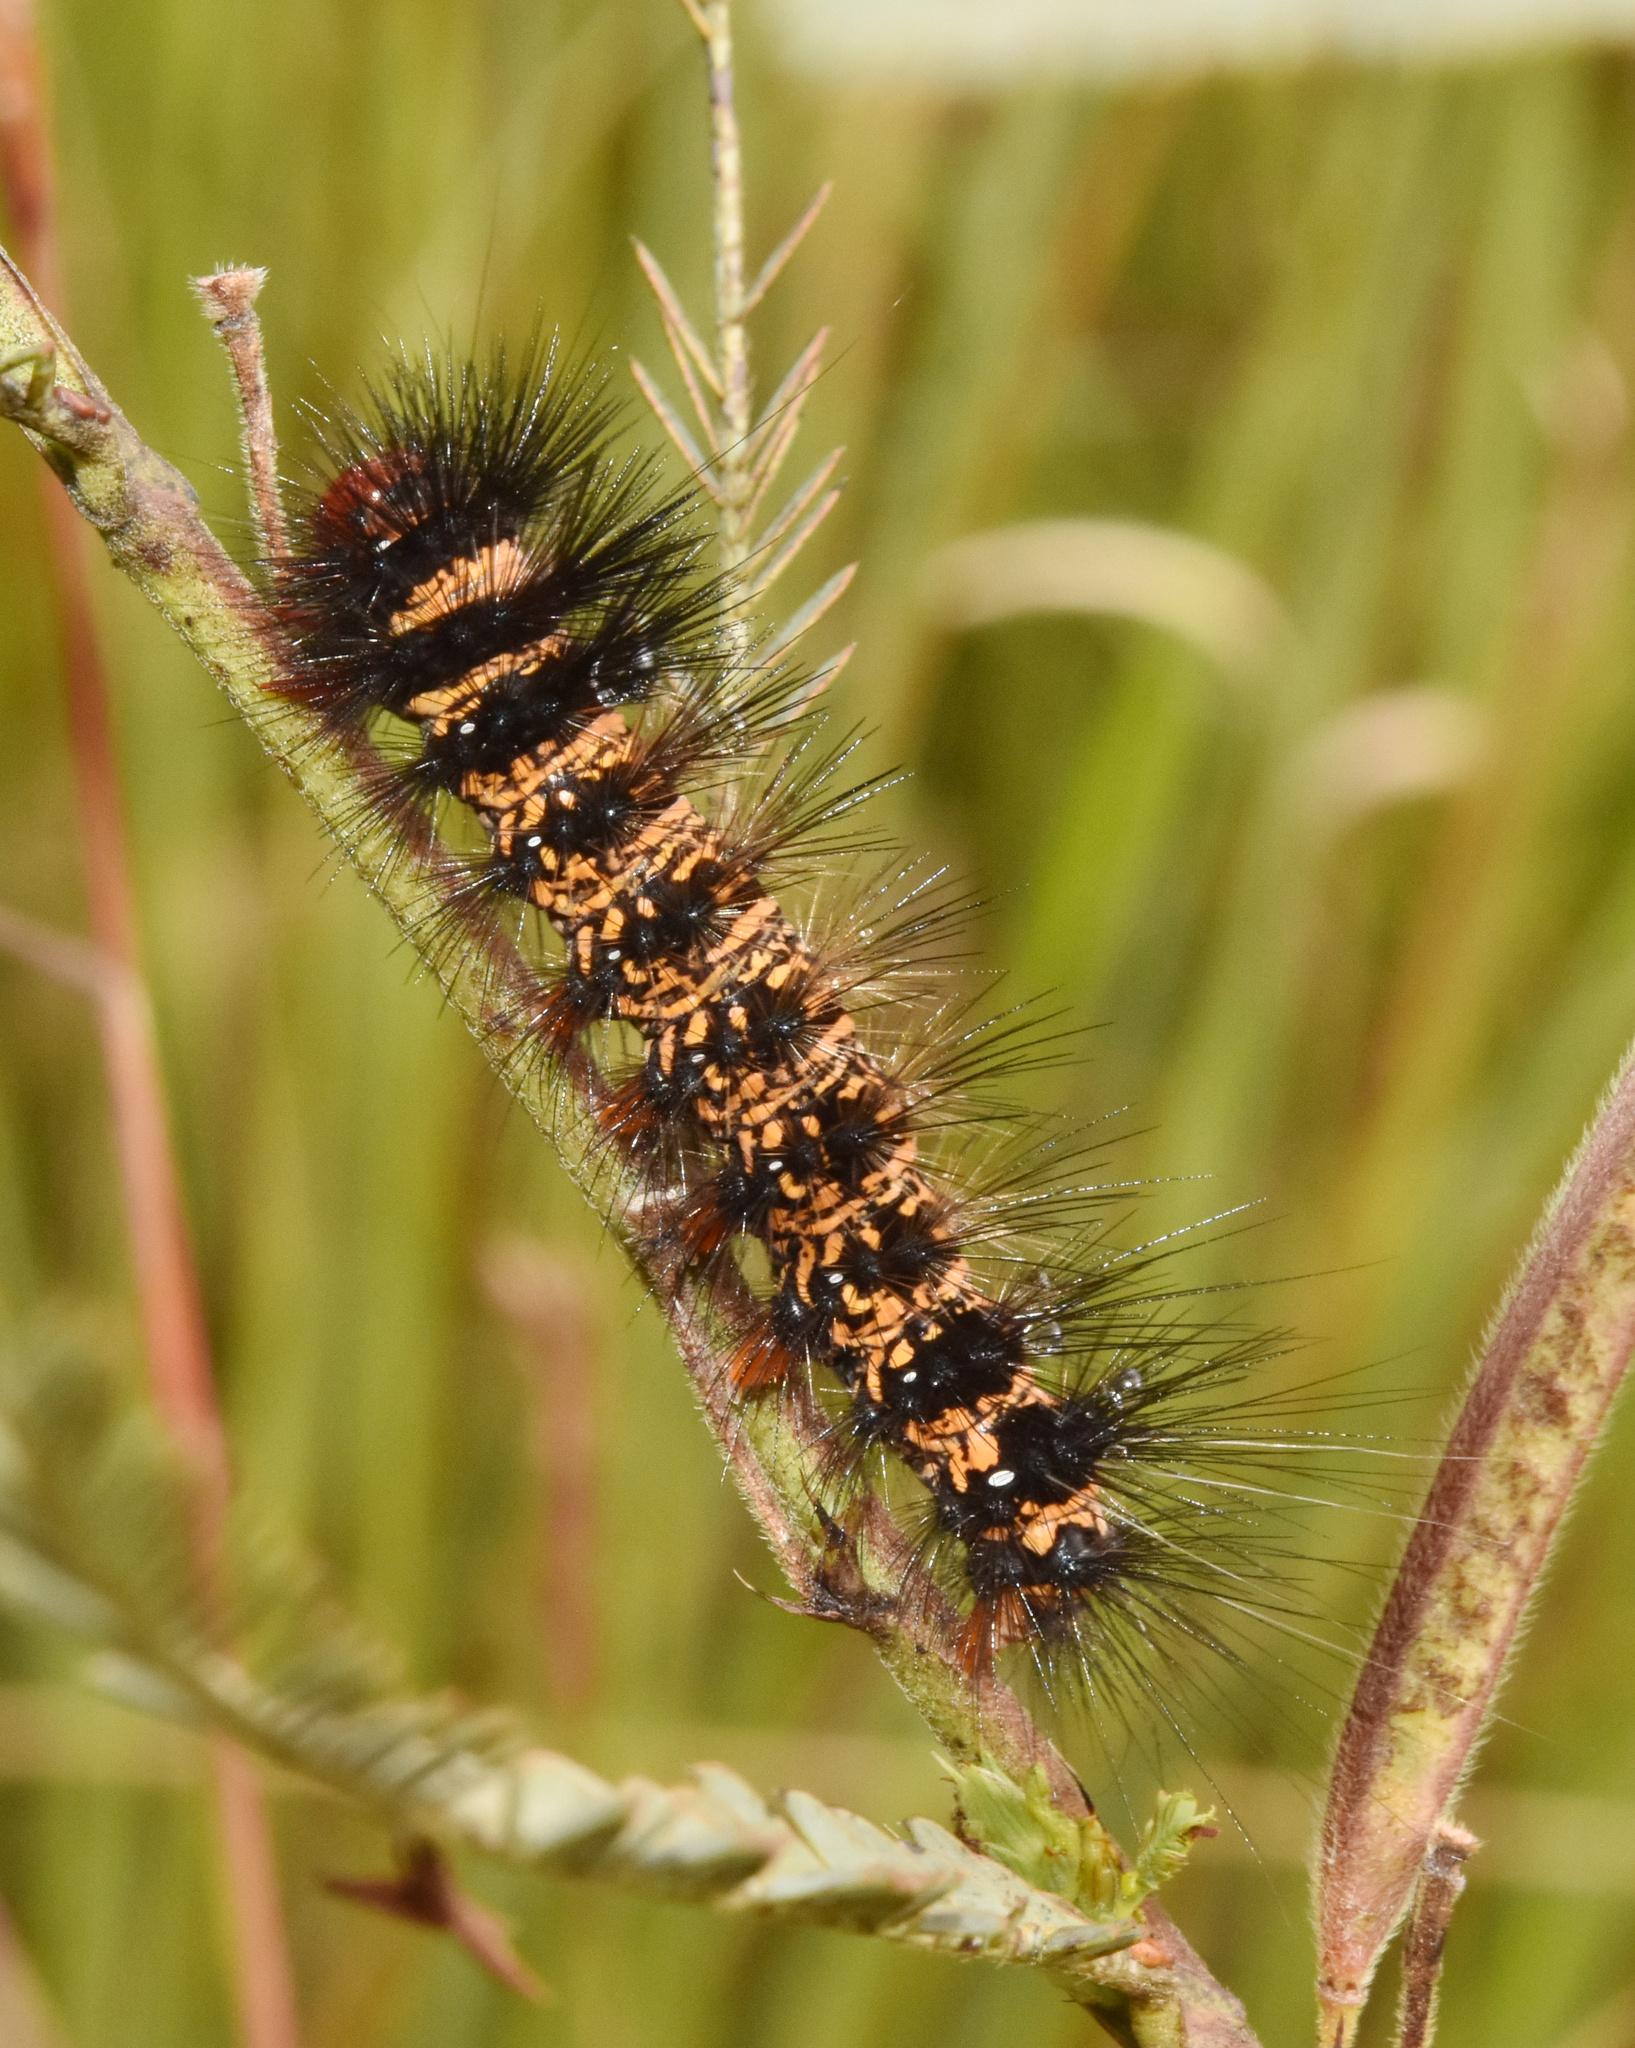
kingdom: Animalia
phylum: Arthropoda
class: Insecta
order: Lepidoptera
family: Erebidae
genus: Afromurzinia
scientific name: Afromurzinia lutescens
